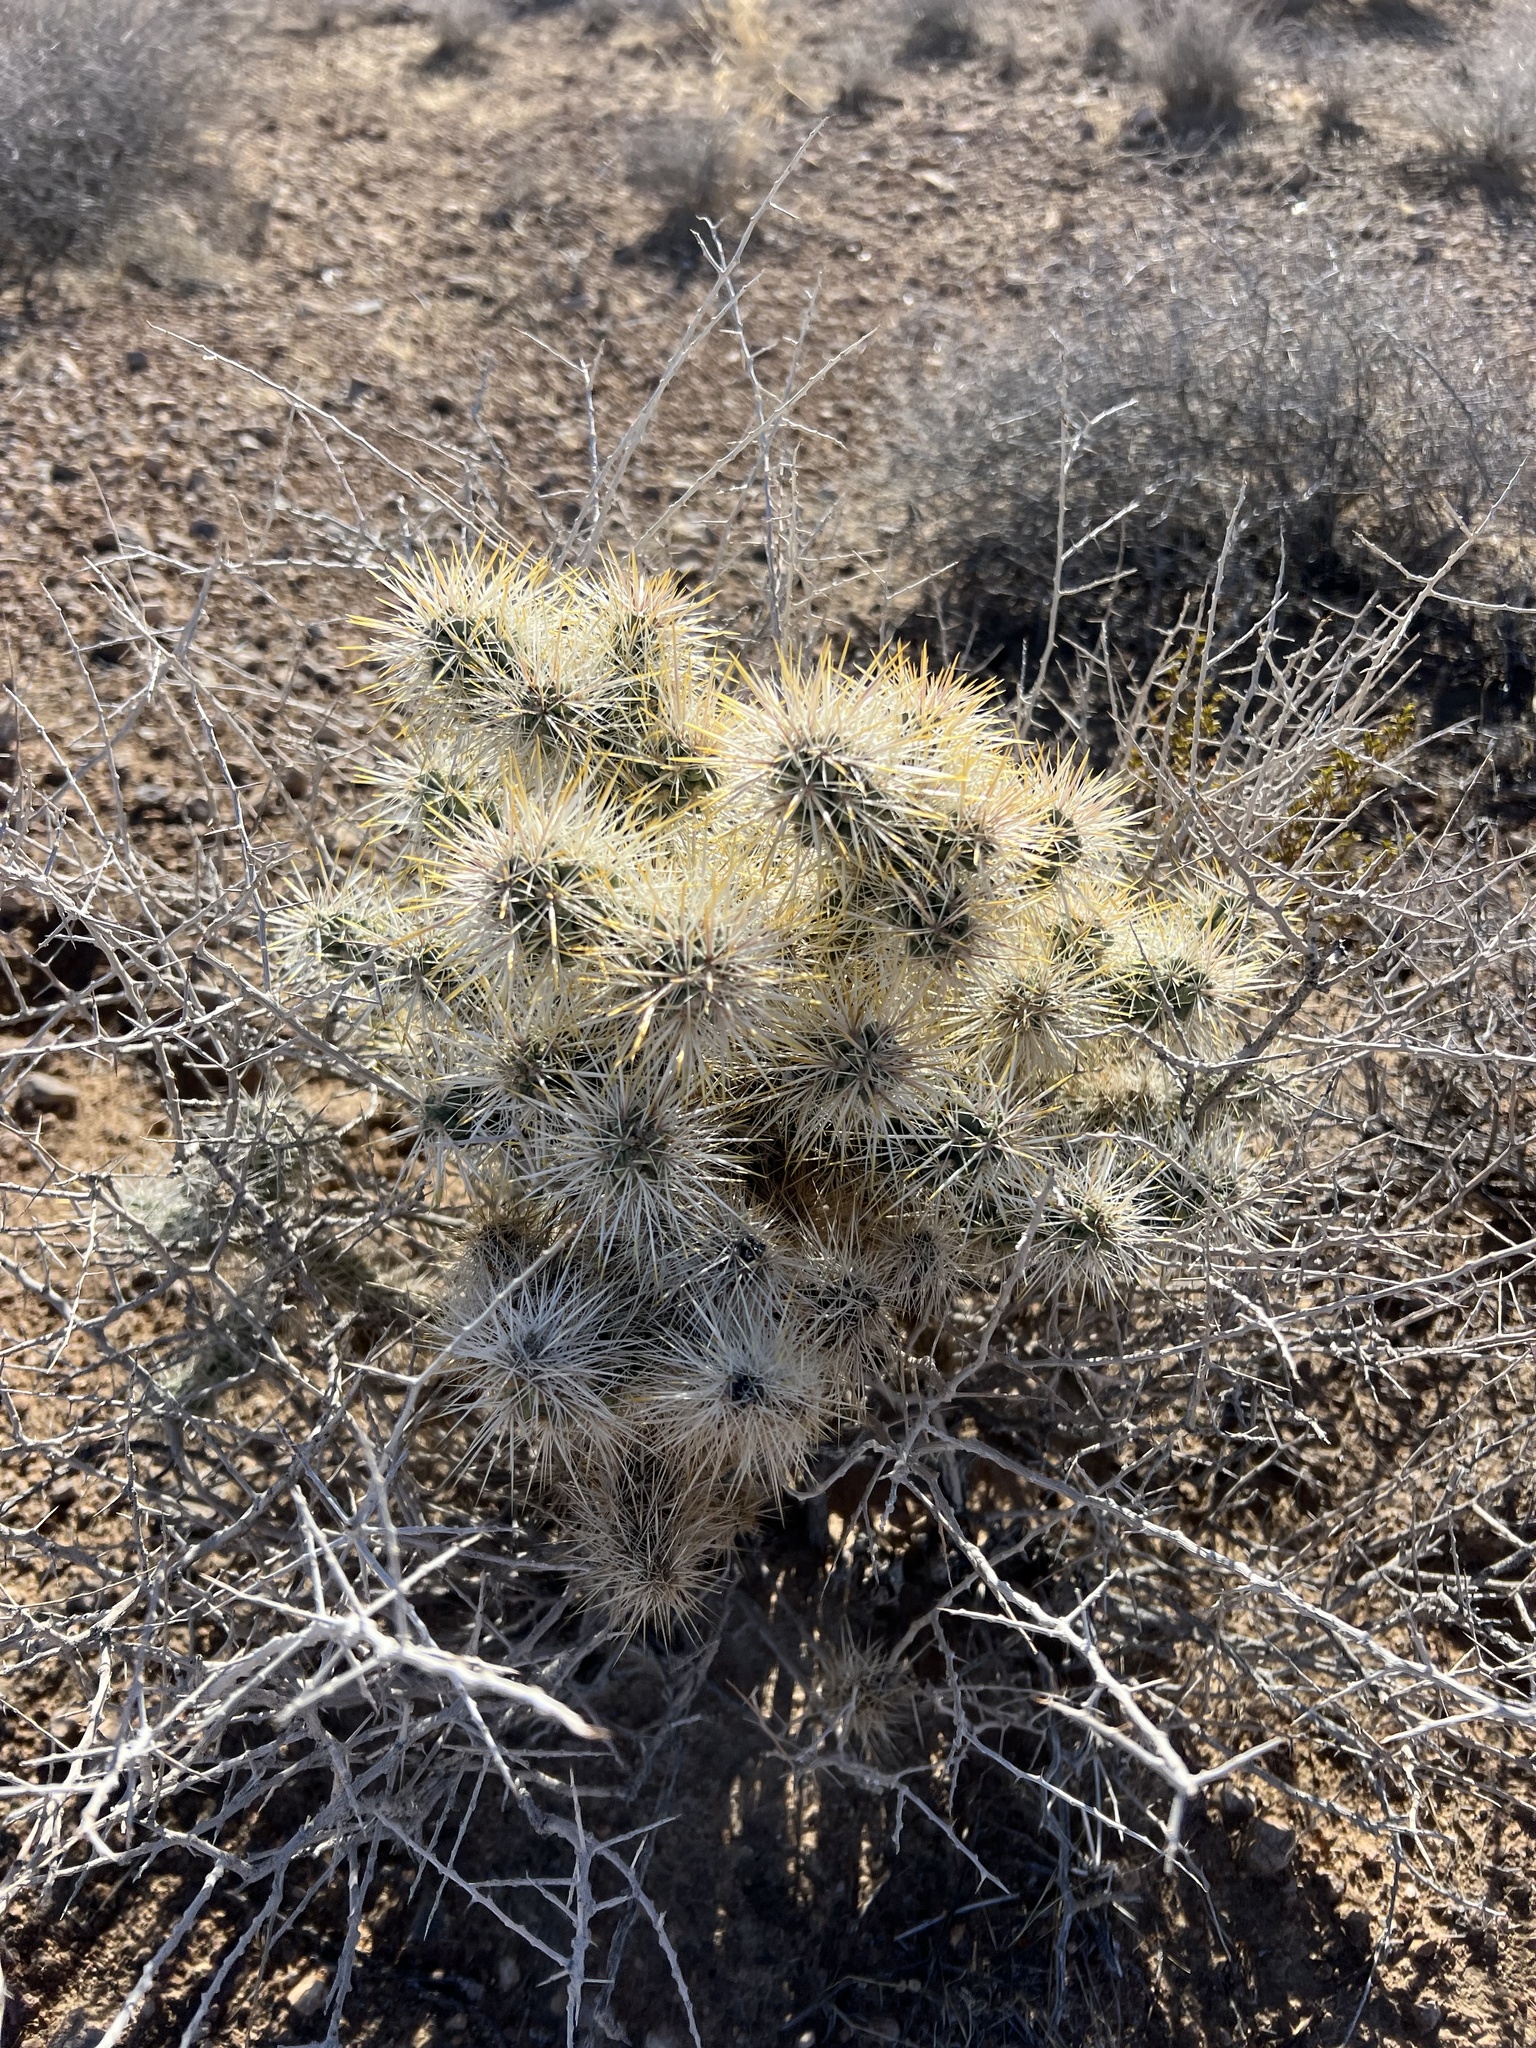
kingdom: Plantae
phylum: Tracheophyta
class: Magnoliopsida
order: Caryophyllales
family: Cactaceae
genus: Cylindropuntia
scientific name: Cylindropuntia echinocarpa
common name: Ground cholla
